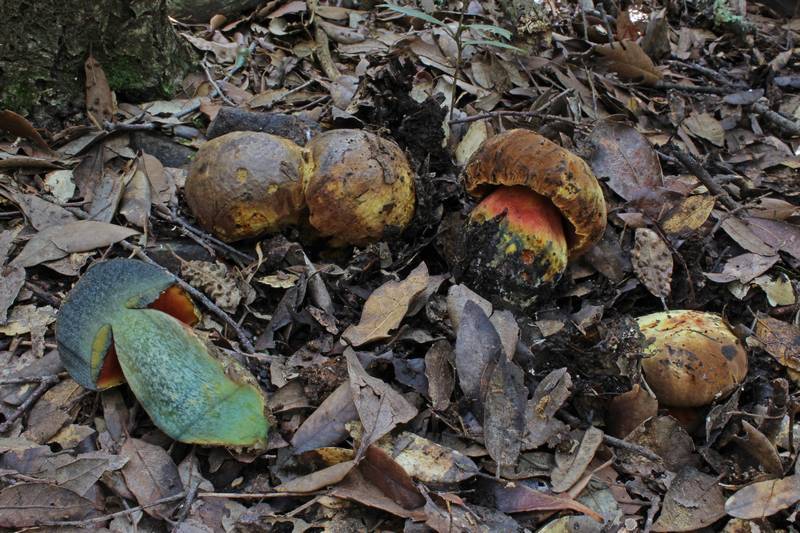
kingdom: Fungi
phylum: Basidiomycota
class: Agaricomycetes
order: Boletales
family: Boletaceae
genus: Neoboletus
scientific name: Neoboletus xanthopus
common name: False yellow bolete
